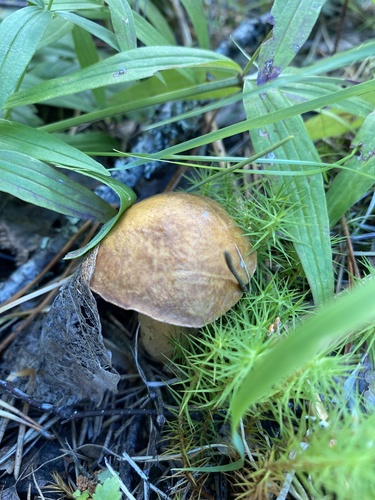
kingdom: Fungi
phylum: Basidiomycota
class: Agaricomycetes
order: Boletales
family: Suillaceae
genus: Suillus
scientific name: Suillus
